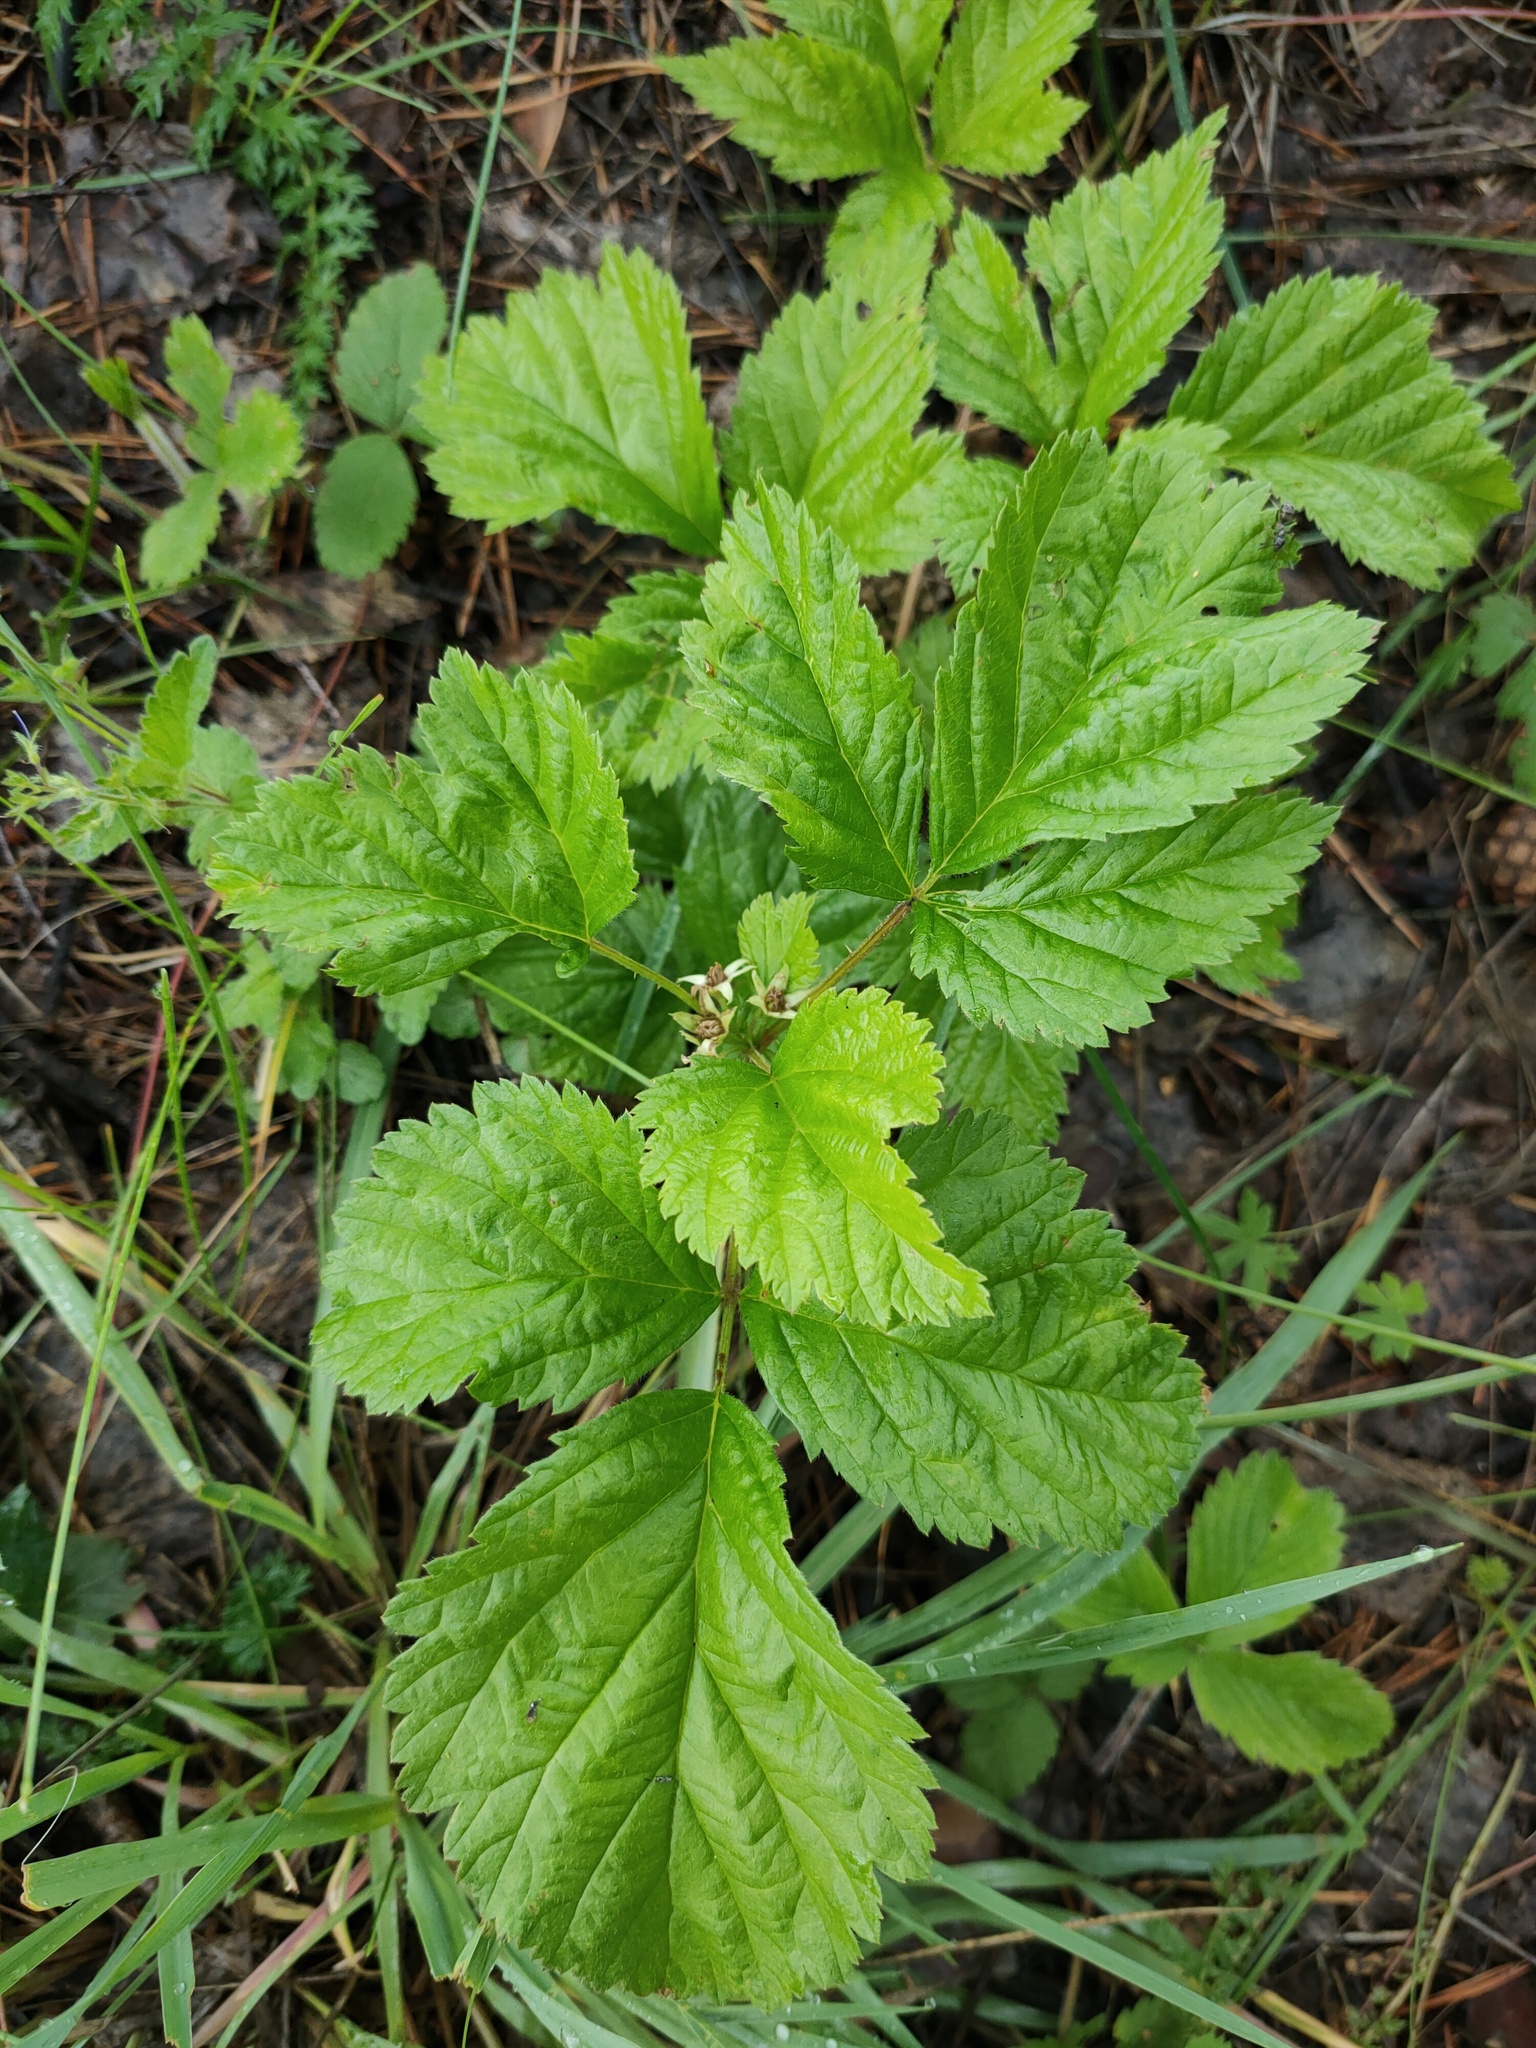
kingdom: Plantae
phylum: Tracheophyta
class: Magnoliopsida
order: Rosales
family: Rosaceae
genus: Rubus
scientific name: Rubus saxatilis
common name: Stone bramble
